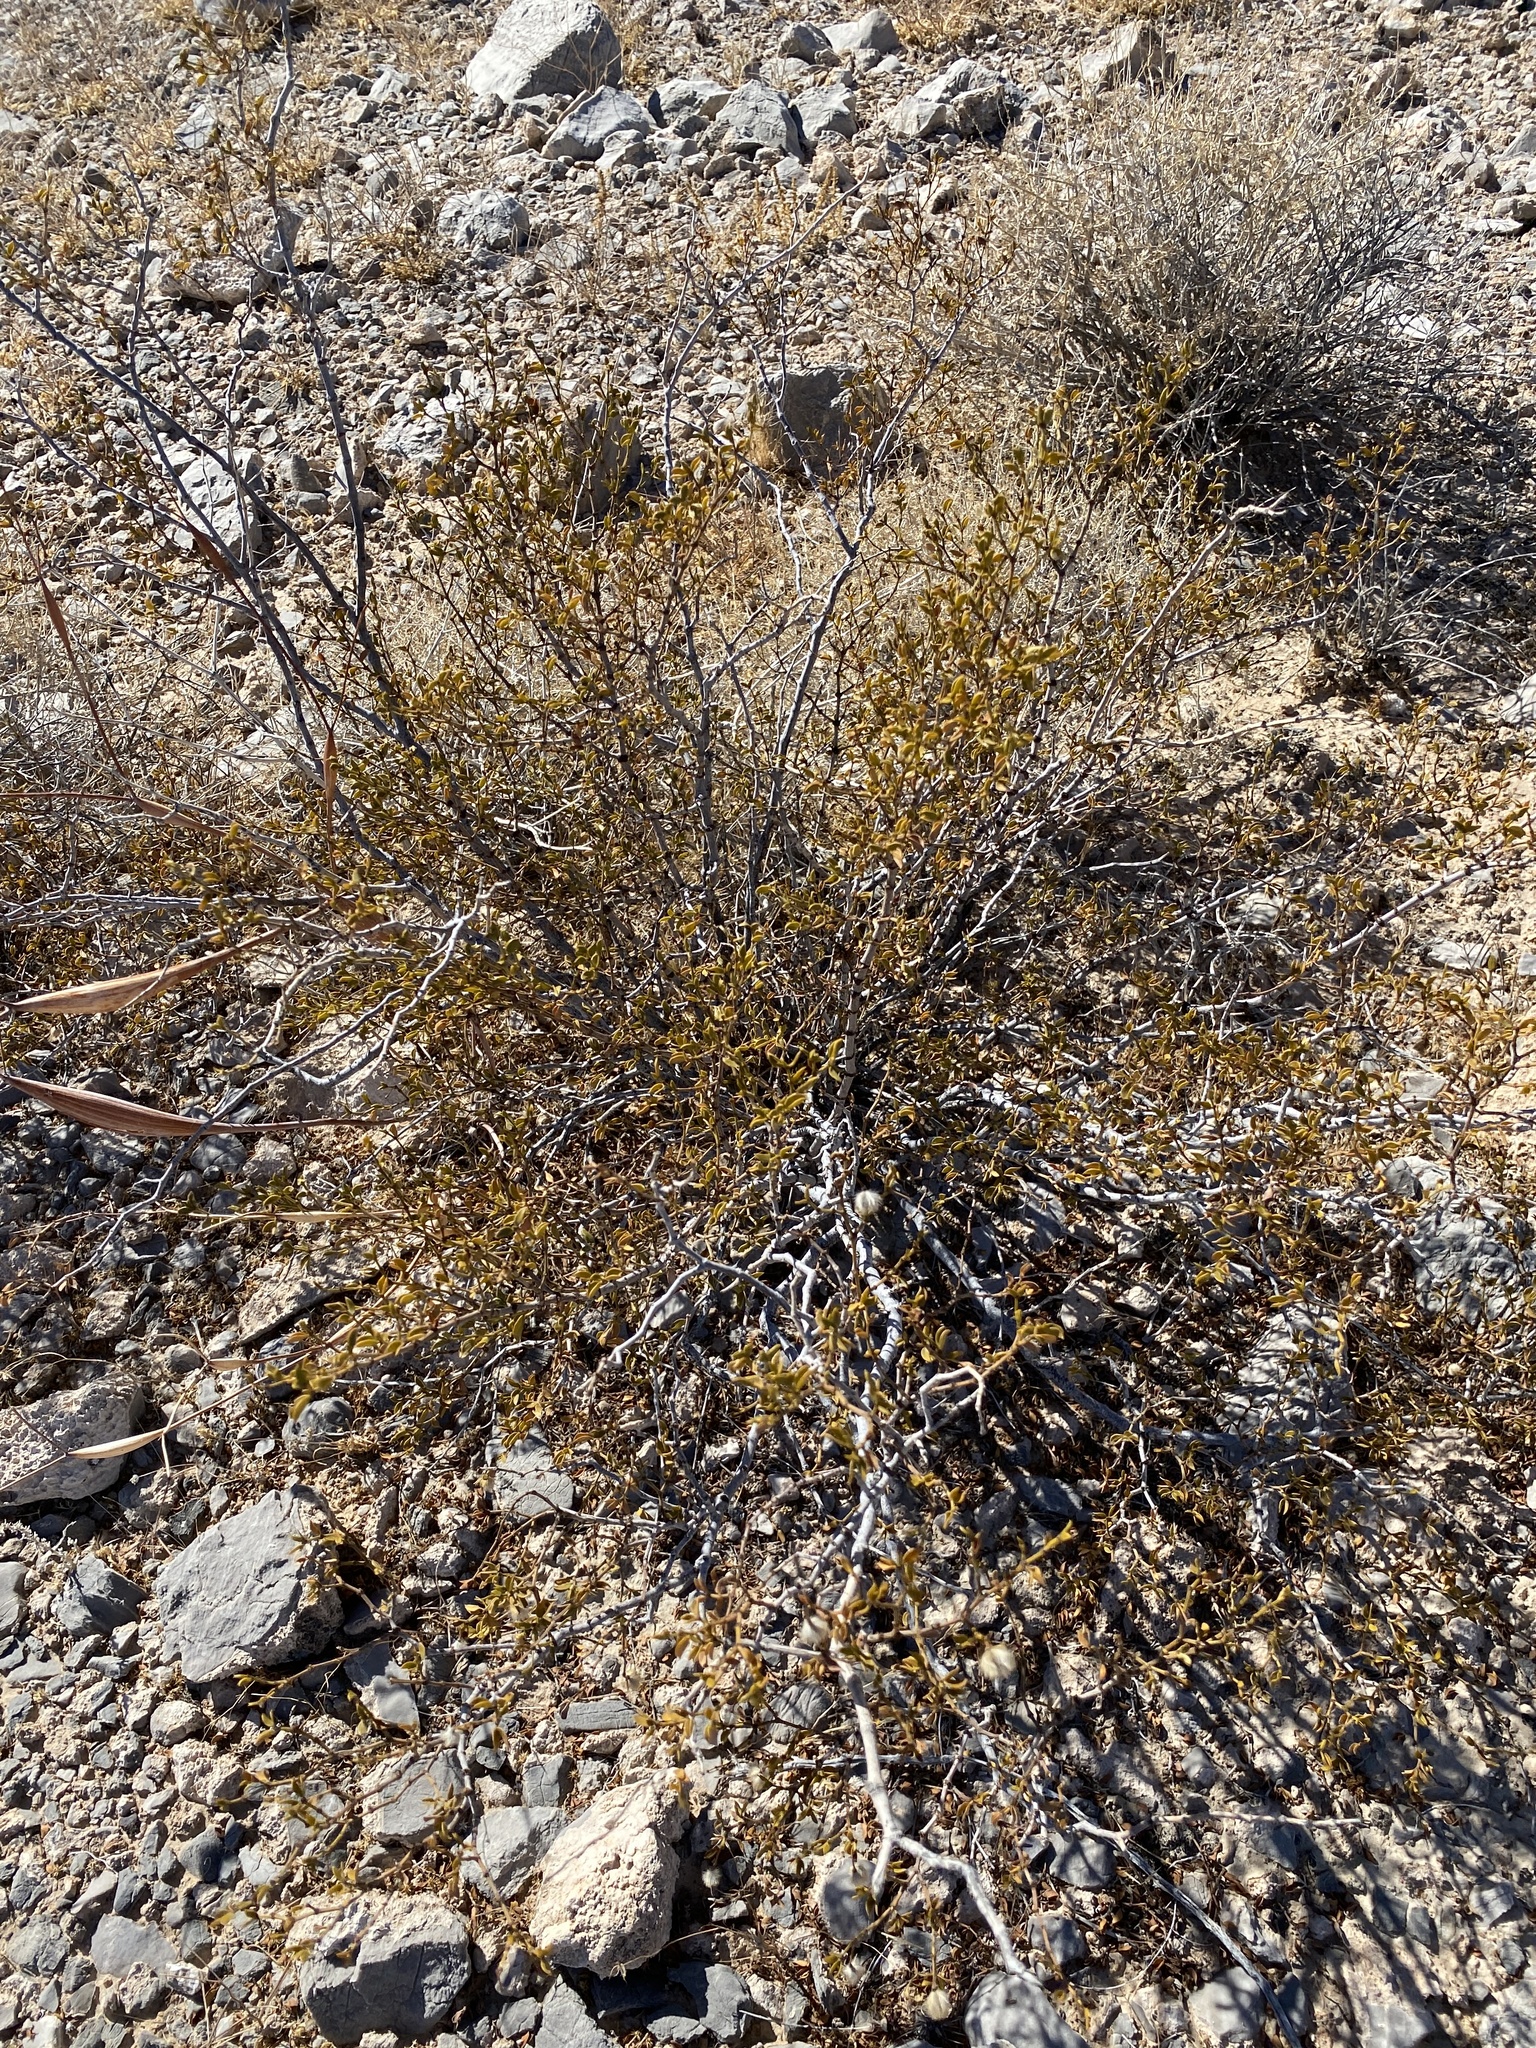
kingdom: Plantae
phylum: Tracheophyta
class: Magnoliopsida
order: Zygophyllales
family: Zygophyllaceae
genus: Larrea
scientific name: Larrea tridentata
